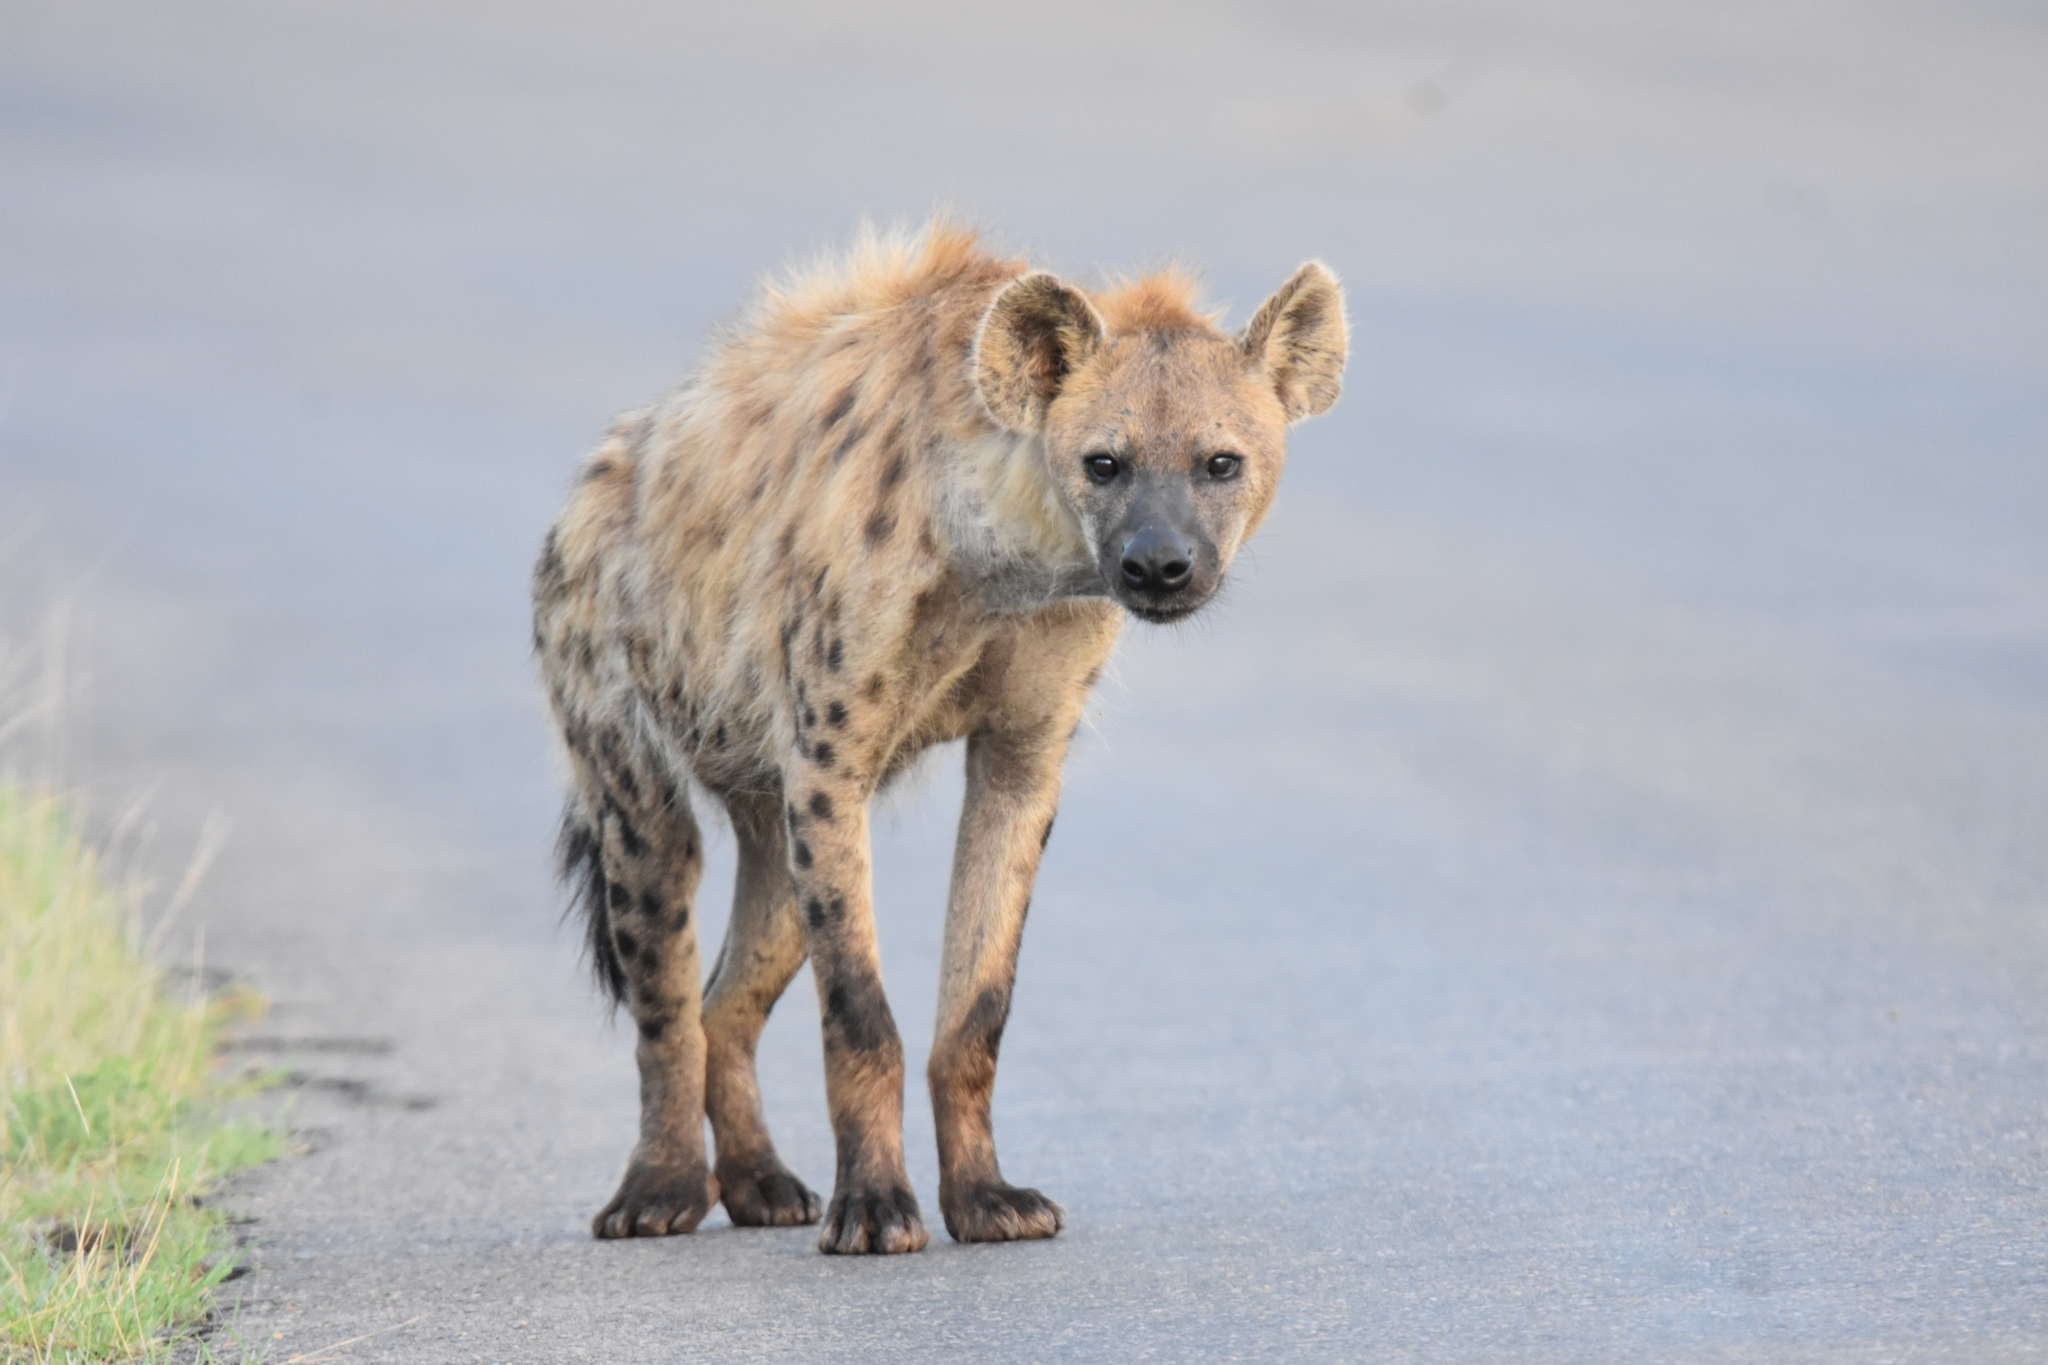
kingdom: Animalia
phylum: Chordata
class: Mammalia
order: Carnivora
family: Hyaenidae
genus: Crocuta
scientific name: Crocuta crocuta
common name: Spotted hyaena
